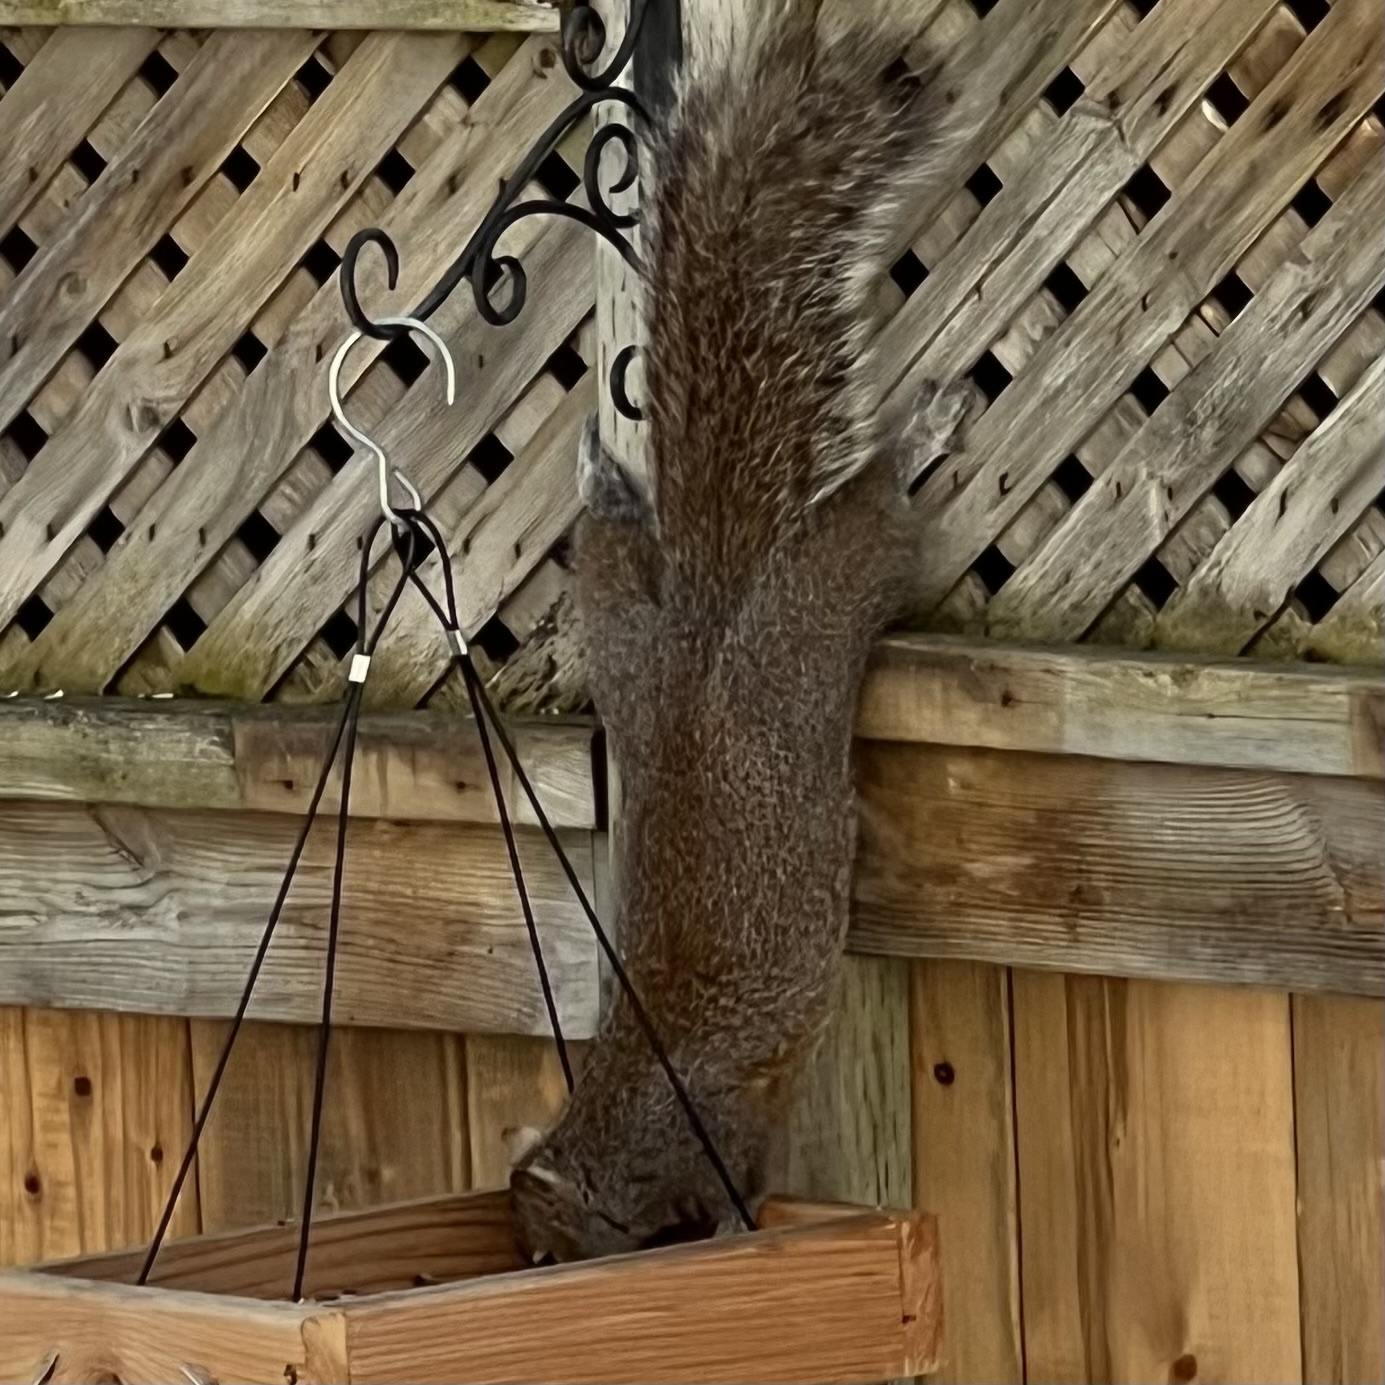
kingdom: Animalia
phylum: Chordata
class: Mammalia
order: Rodentia
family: Sciuridae
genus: Sciurus
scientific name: Sciurus carolinensis
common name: Eastern gray squirrel
